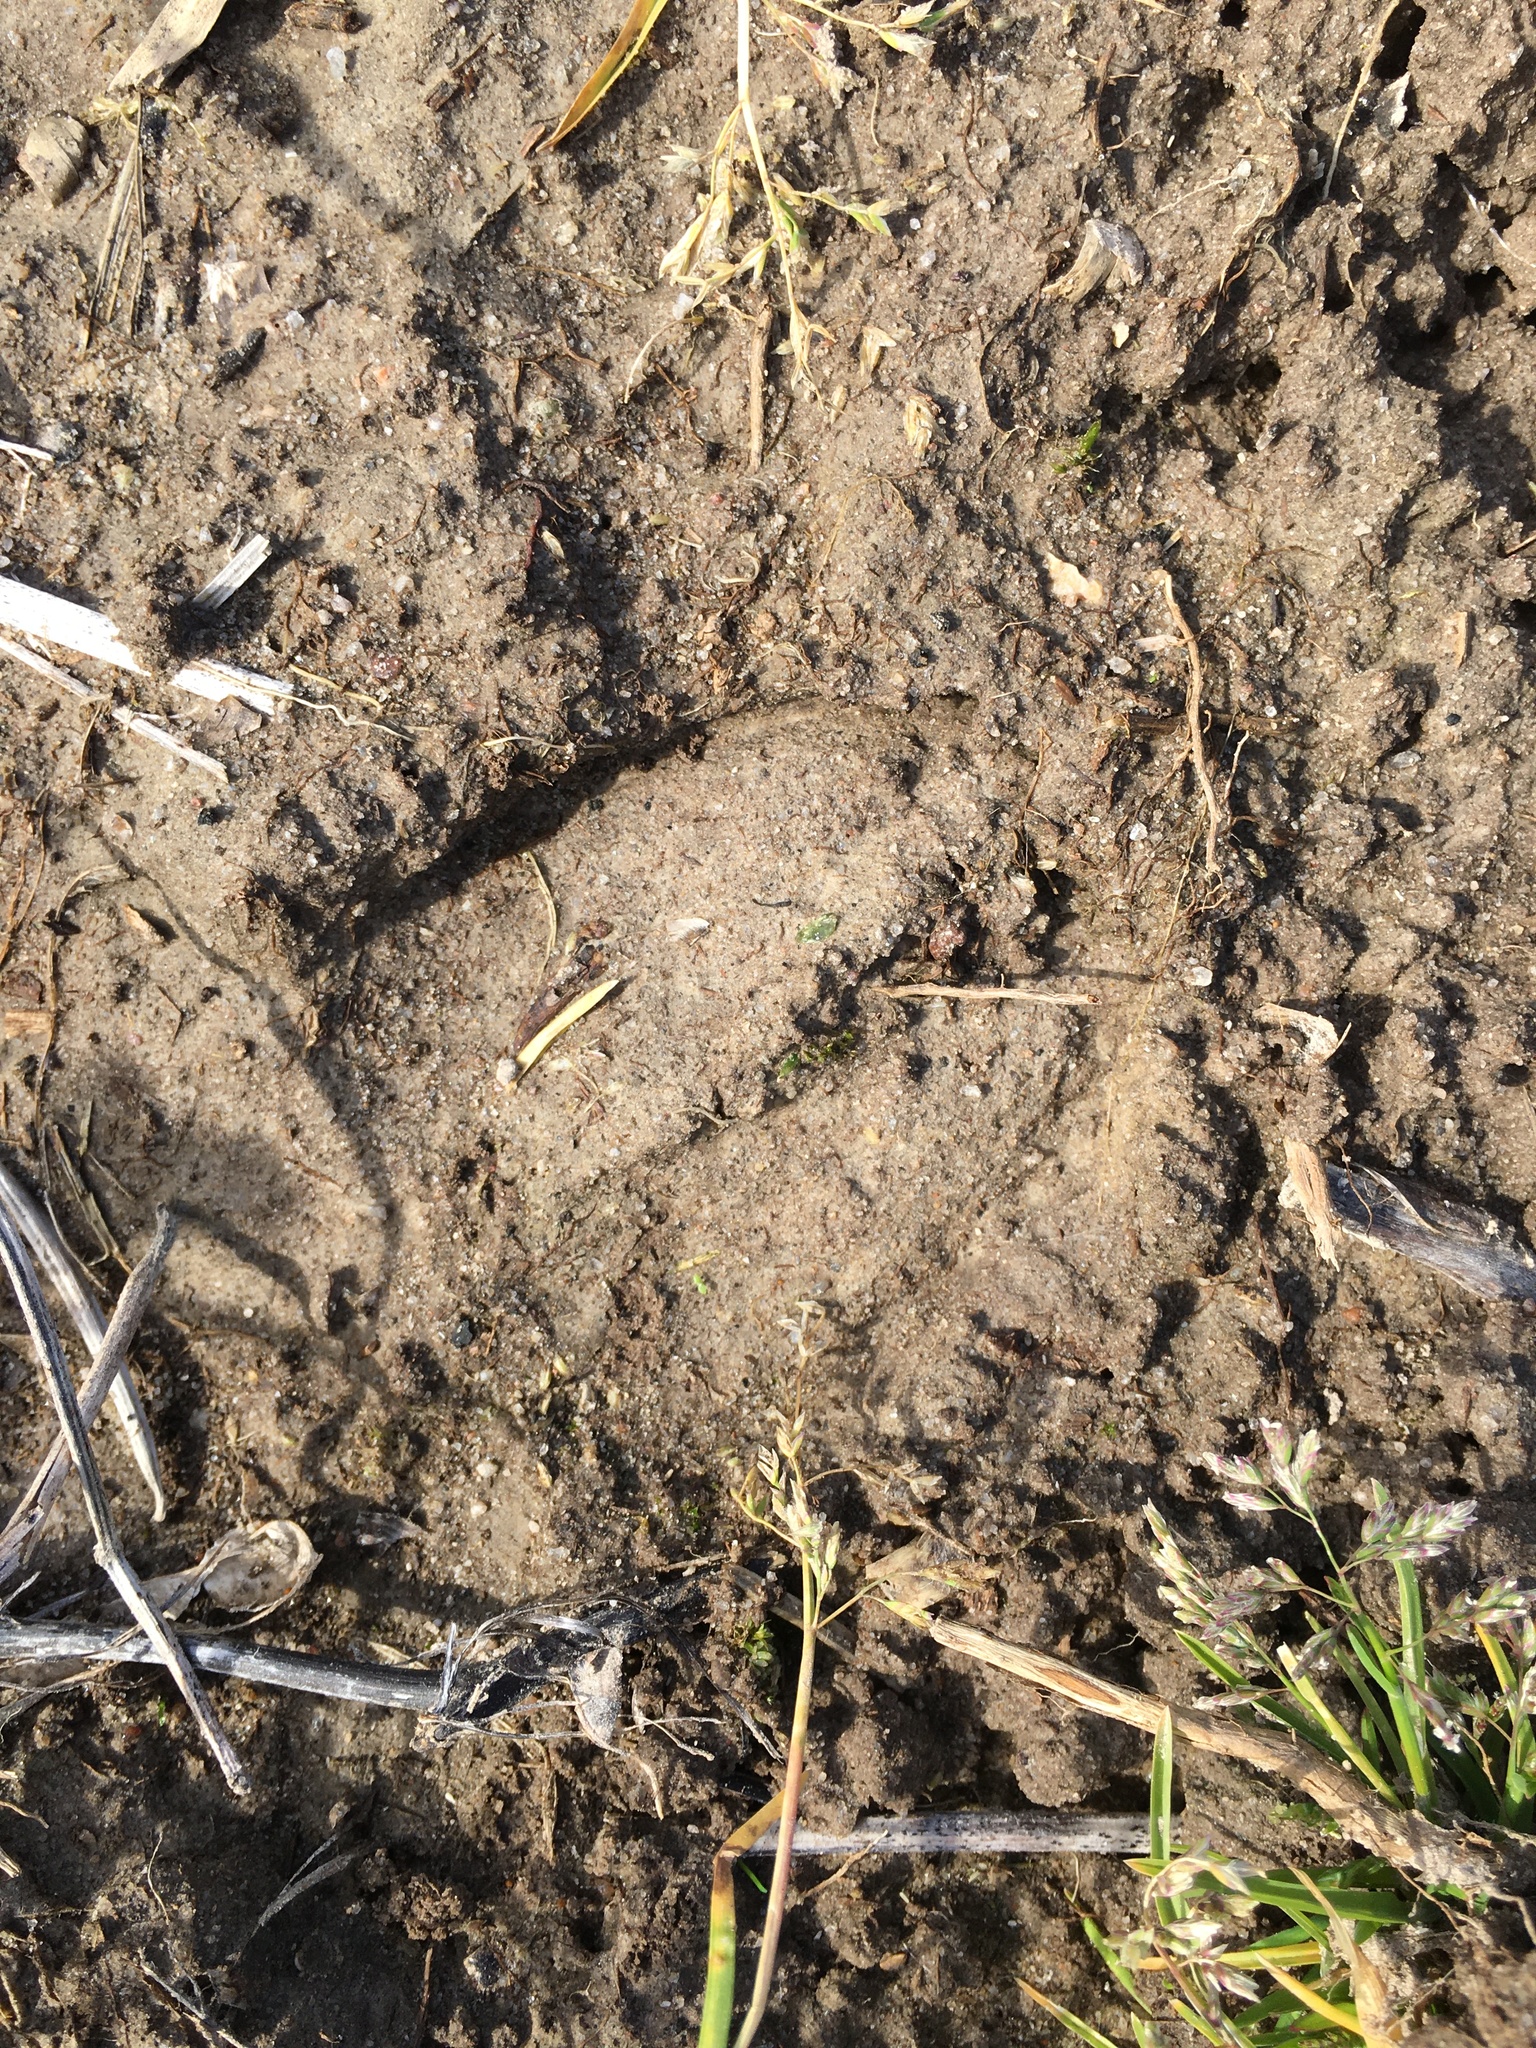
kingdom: Animalia
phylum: Chordata
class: Mammalia
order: Artiodactyla
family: Suidae
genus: Sus
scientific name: Sus scrofa
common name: Wild boar
